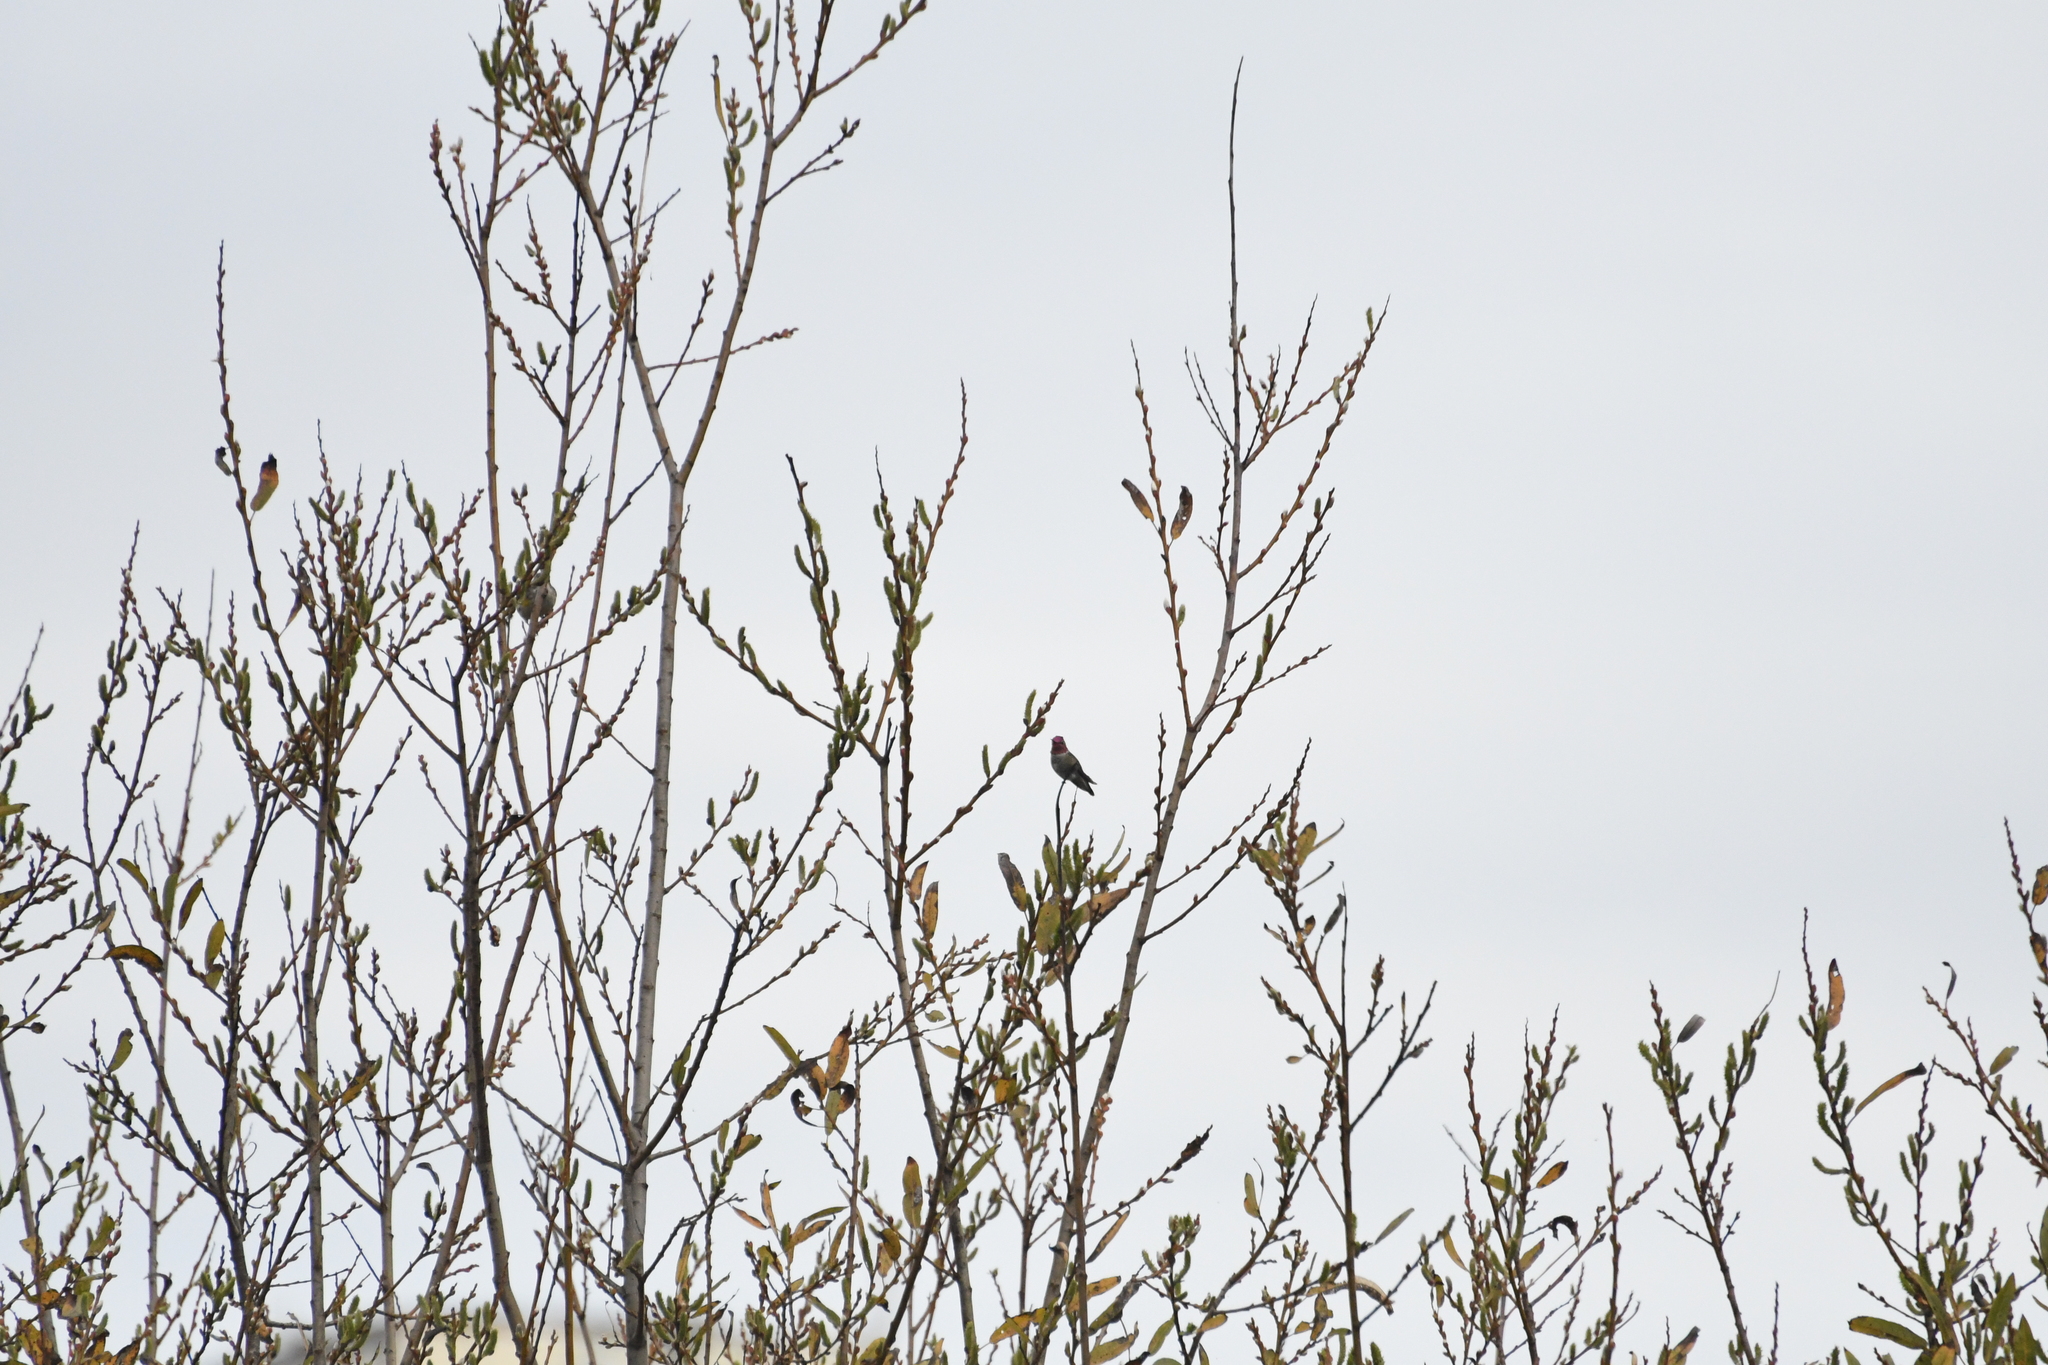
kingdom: Animalia
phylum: Chordata
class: Aves
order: Apodiformes
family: Trochilidae
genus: Calypte
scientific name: Calypte anna
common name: Anna's hummingbird
